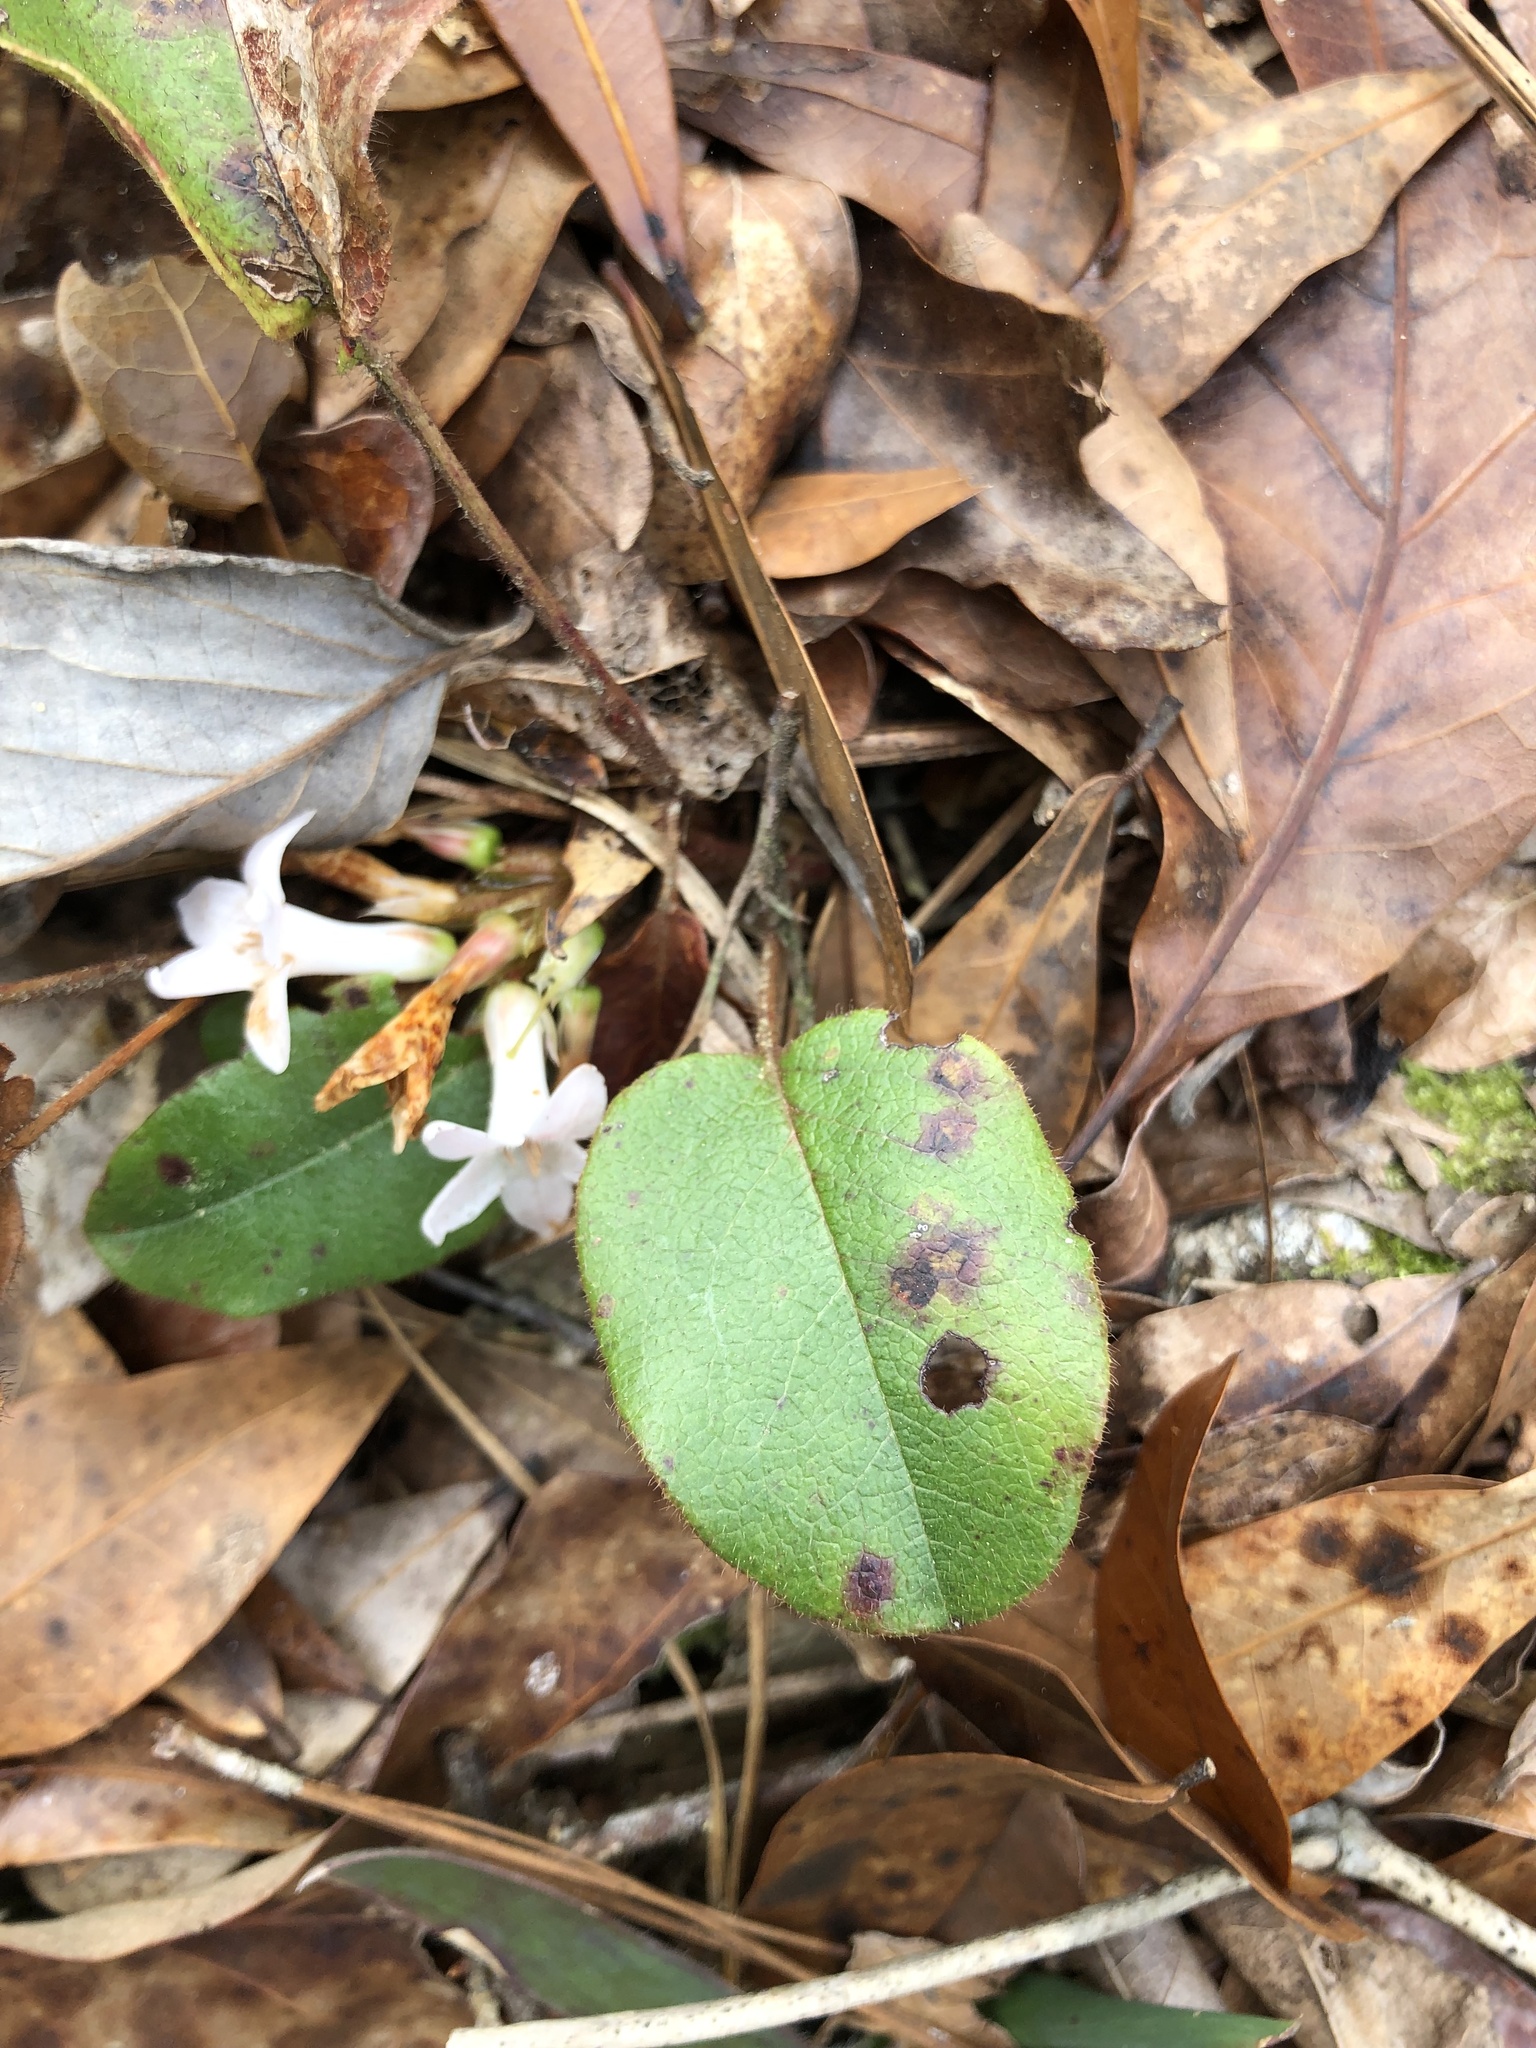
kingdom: Plantae
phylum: Tracheophyta
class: Magnoliopsida
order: Ericales
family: Ericaceae
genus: Epigaea
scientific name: Epigaea repens
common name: Gravelroot
